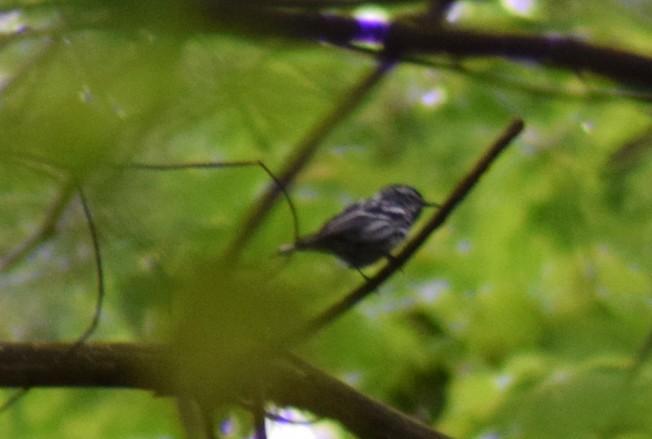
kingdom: Animalia
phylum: Chordata
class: Aves
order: Passeriformes
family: Parulidae
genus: Mniotilta
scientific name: Mniotilta varia
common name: Black-and-white warbler
